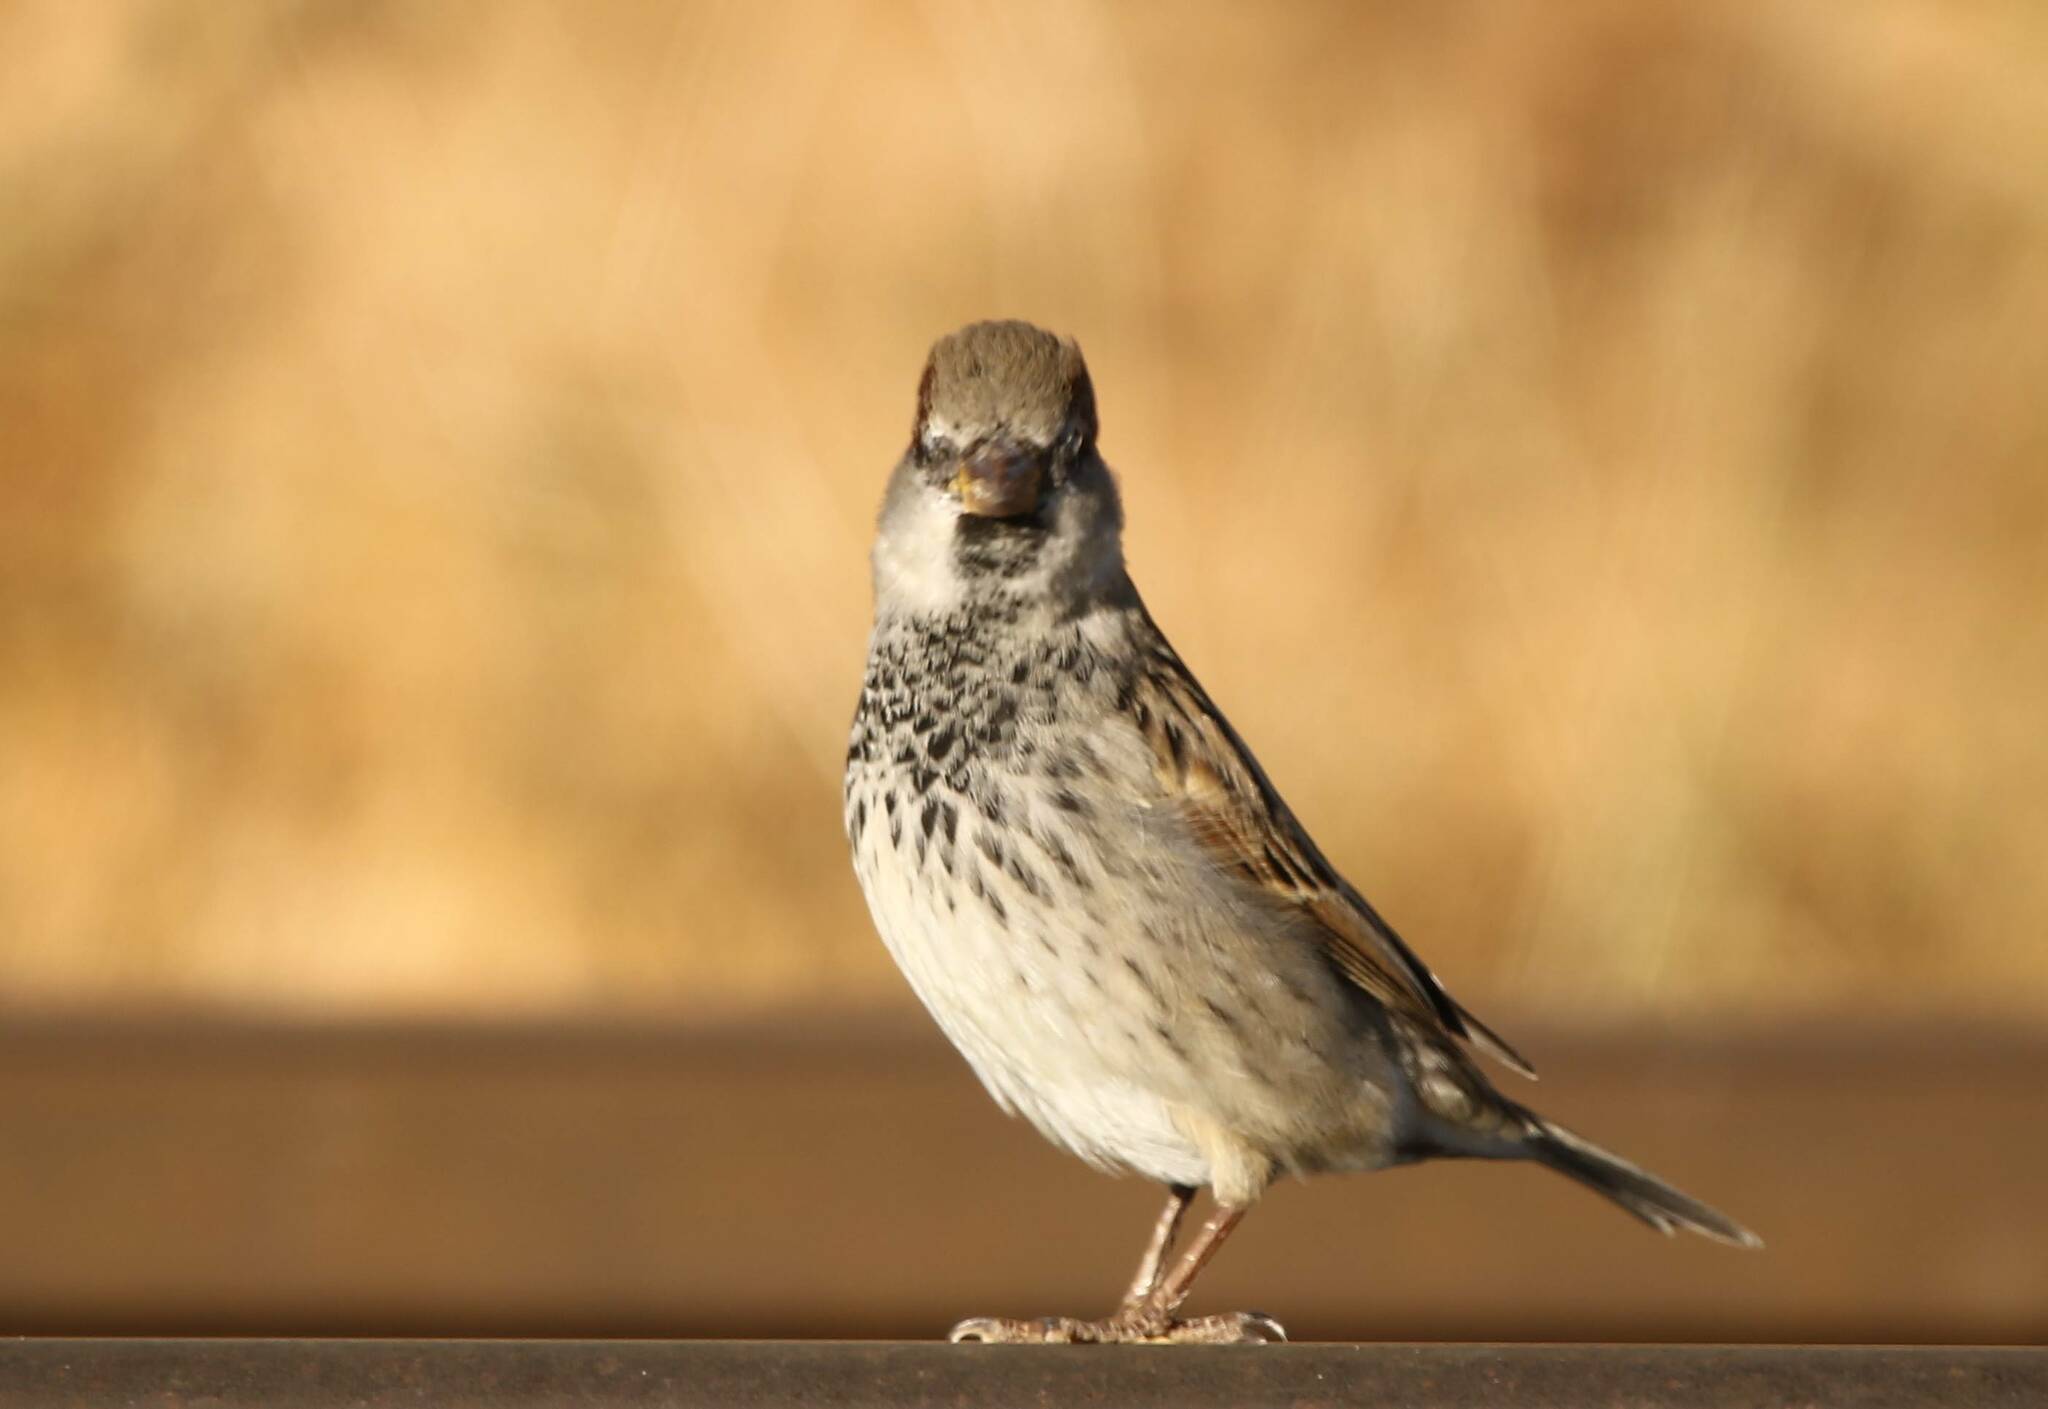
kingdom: Animalia
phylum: Chordata
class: Aves
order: Passeriformes
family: Passeridae
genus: Passer
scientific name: Passer domesticus
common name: House sparrow
